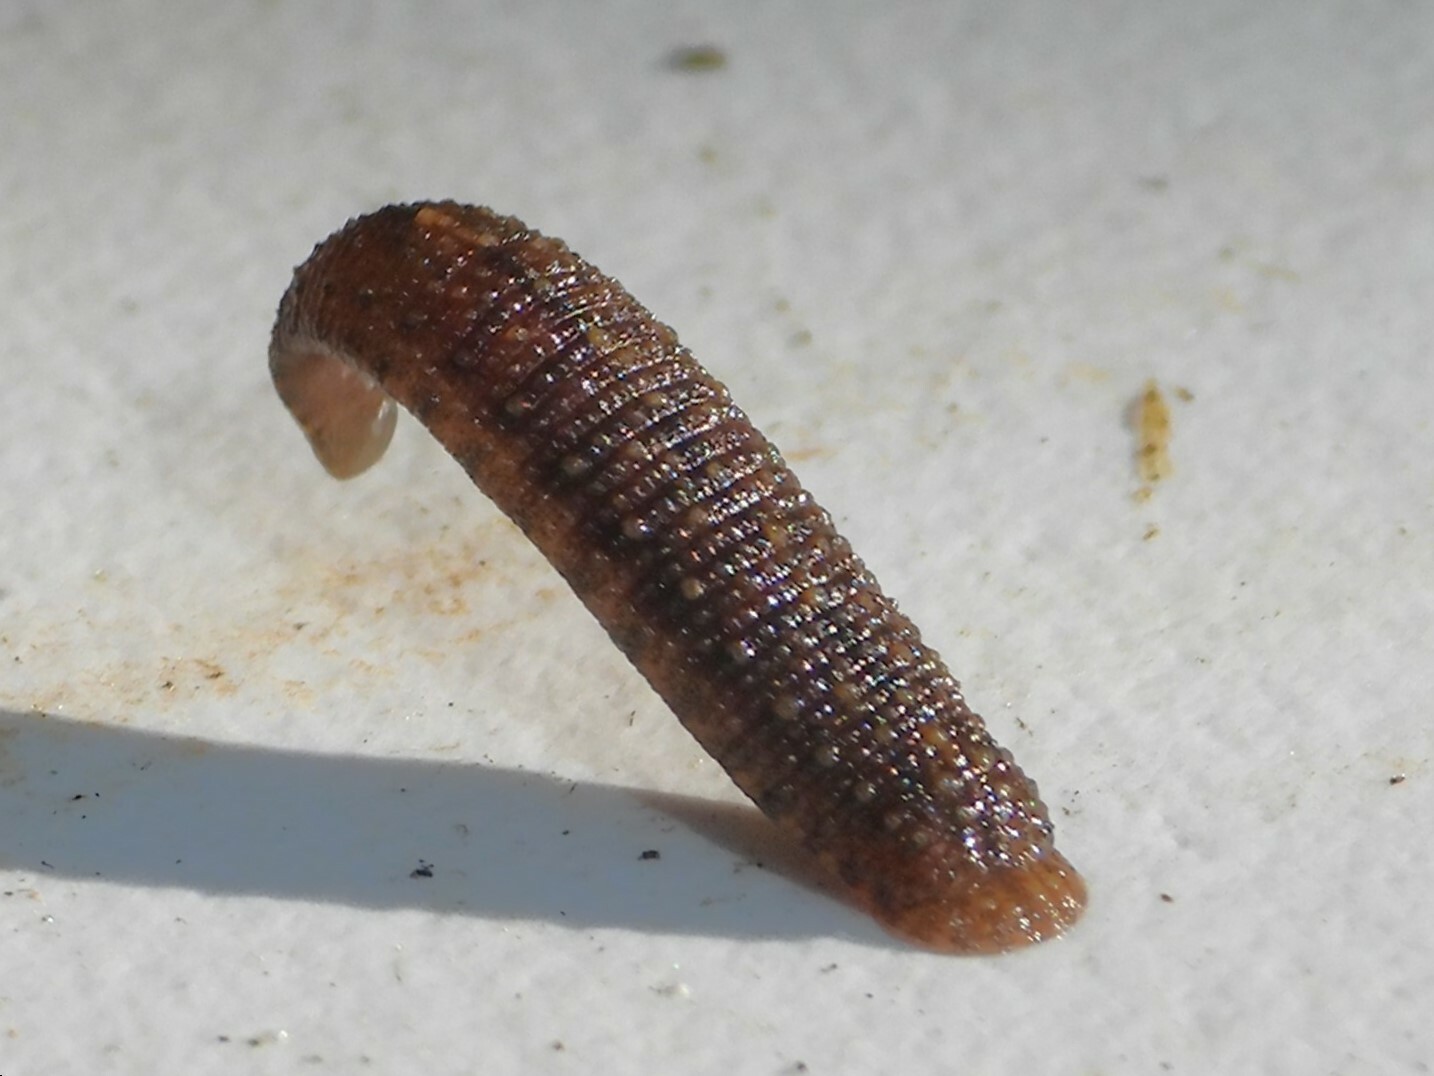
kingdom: Animalia
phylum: Annelida
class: Clitellata
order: Rhynchobdellida
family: Glossiphoniidae
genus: Placobdella
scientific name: Placobdella rugosa
